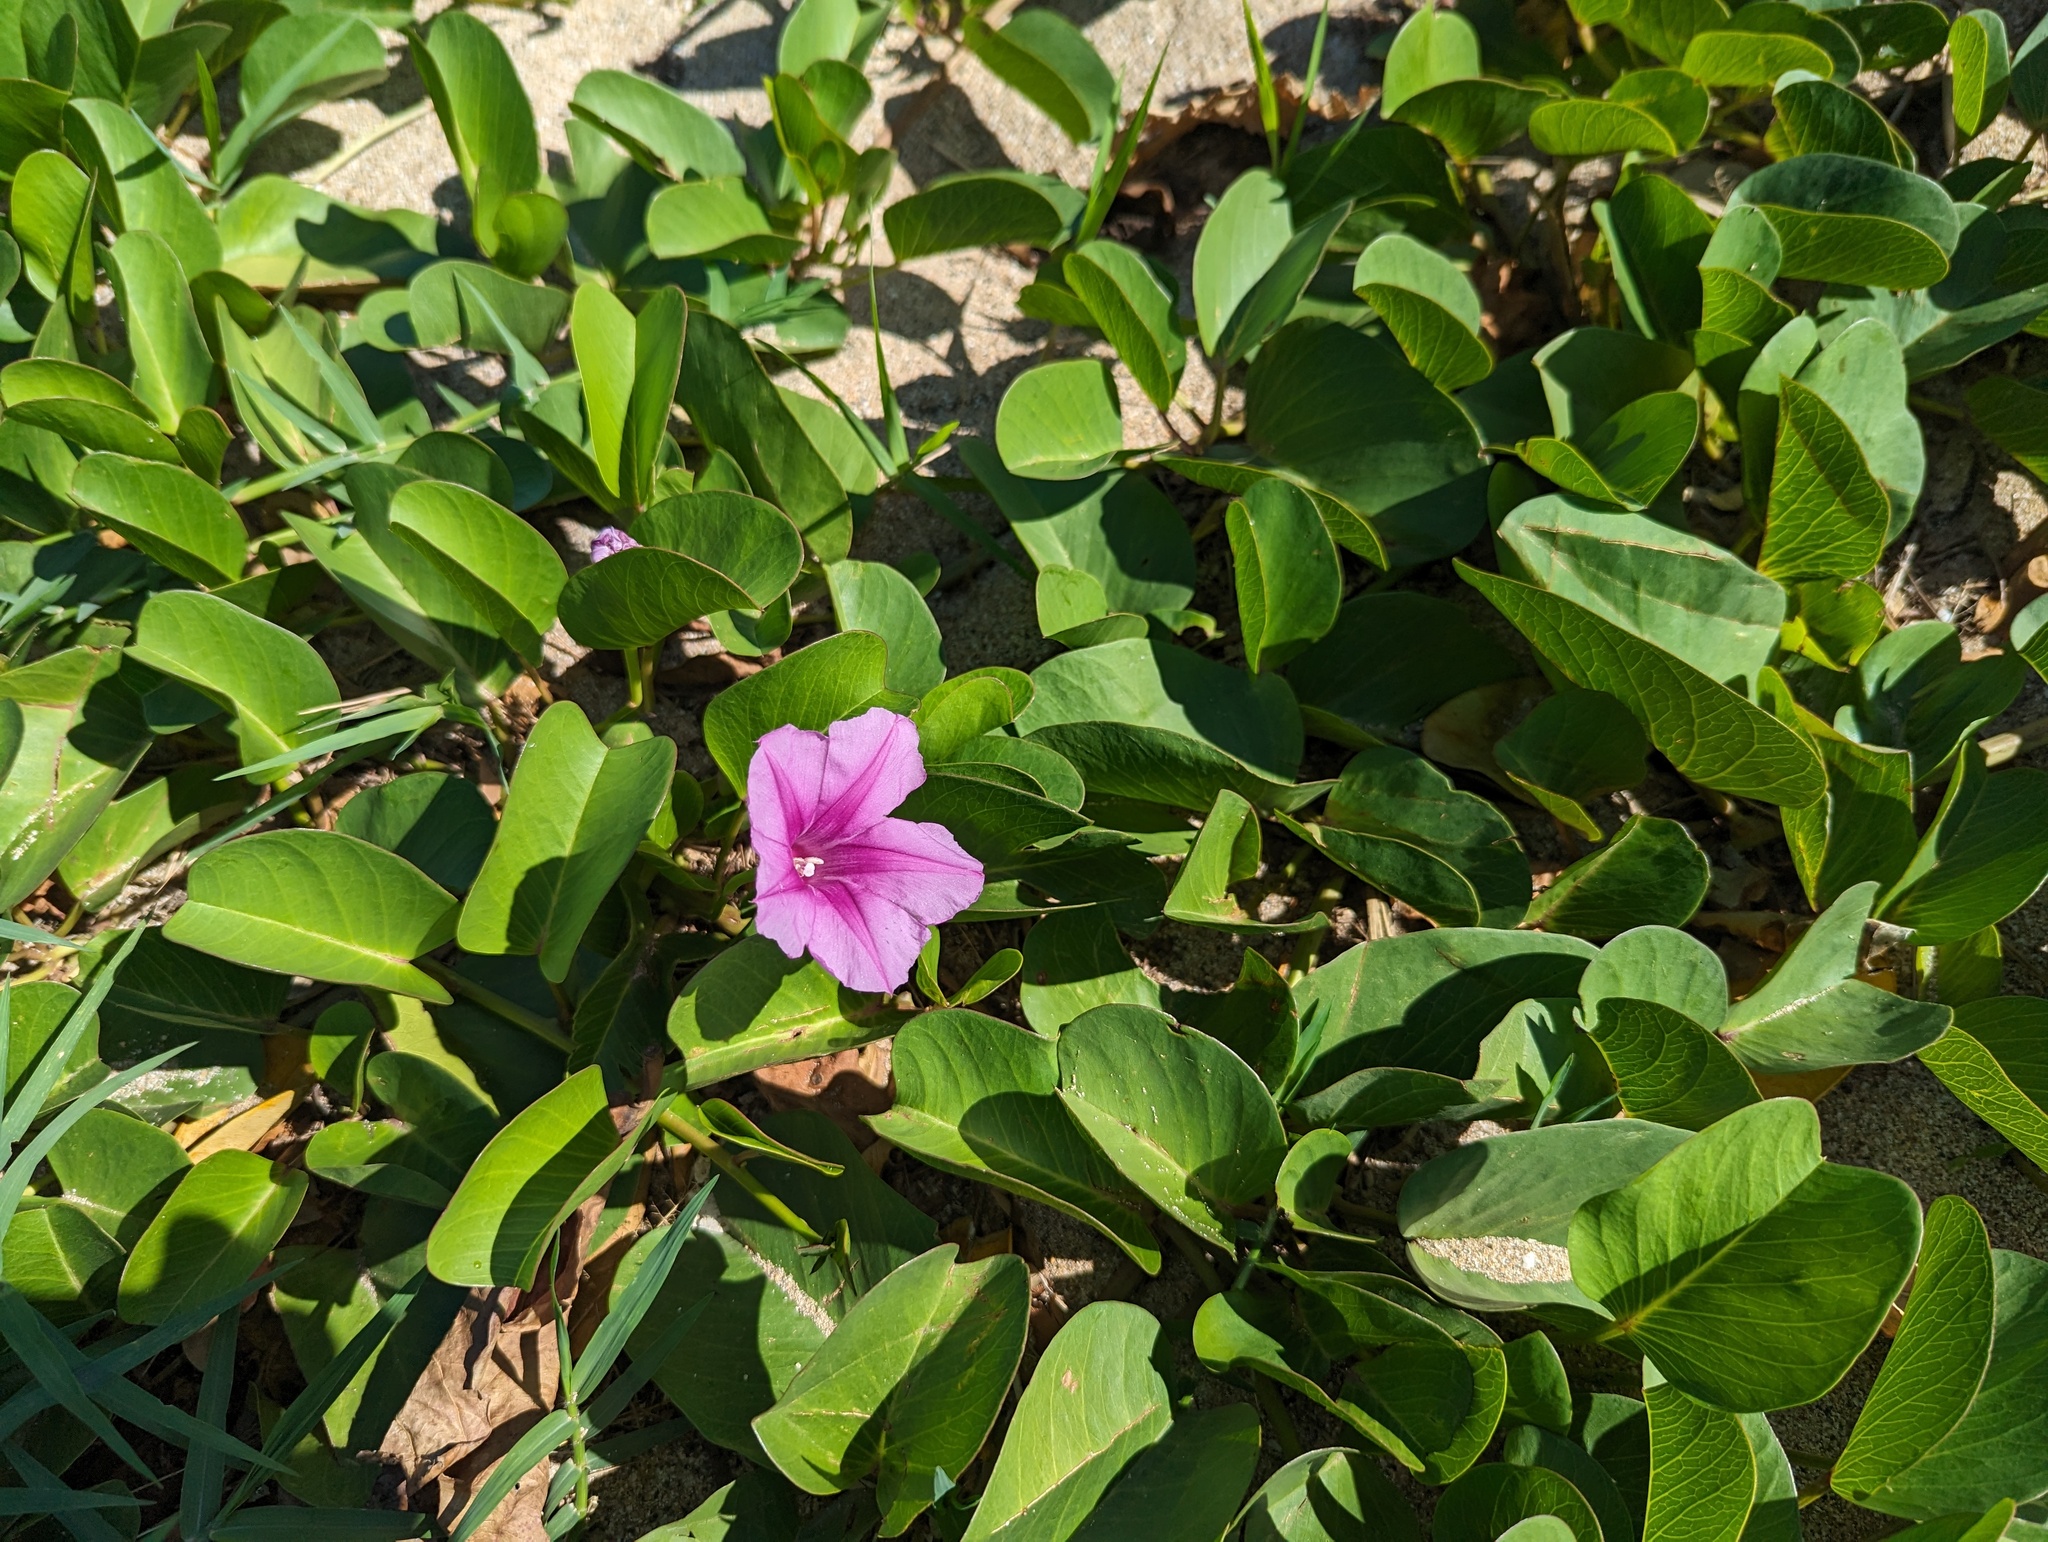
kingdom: Plantae
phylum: Tracheophyta
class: Magnoliopsida
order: Solanales
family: Convolvulaceae
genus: Ipomoea
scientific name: Ipomoea pes-caprae
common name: Beach morning glory
